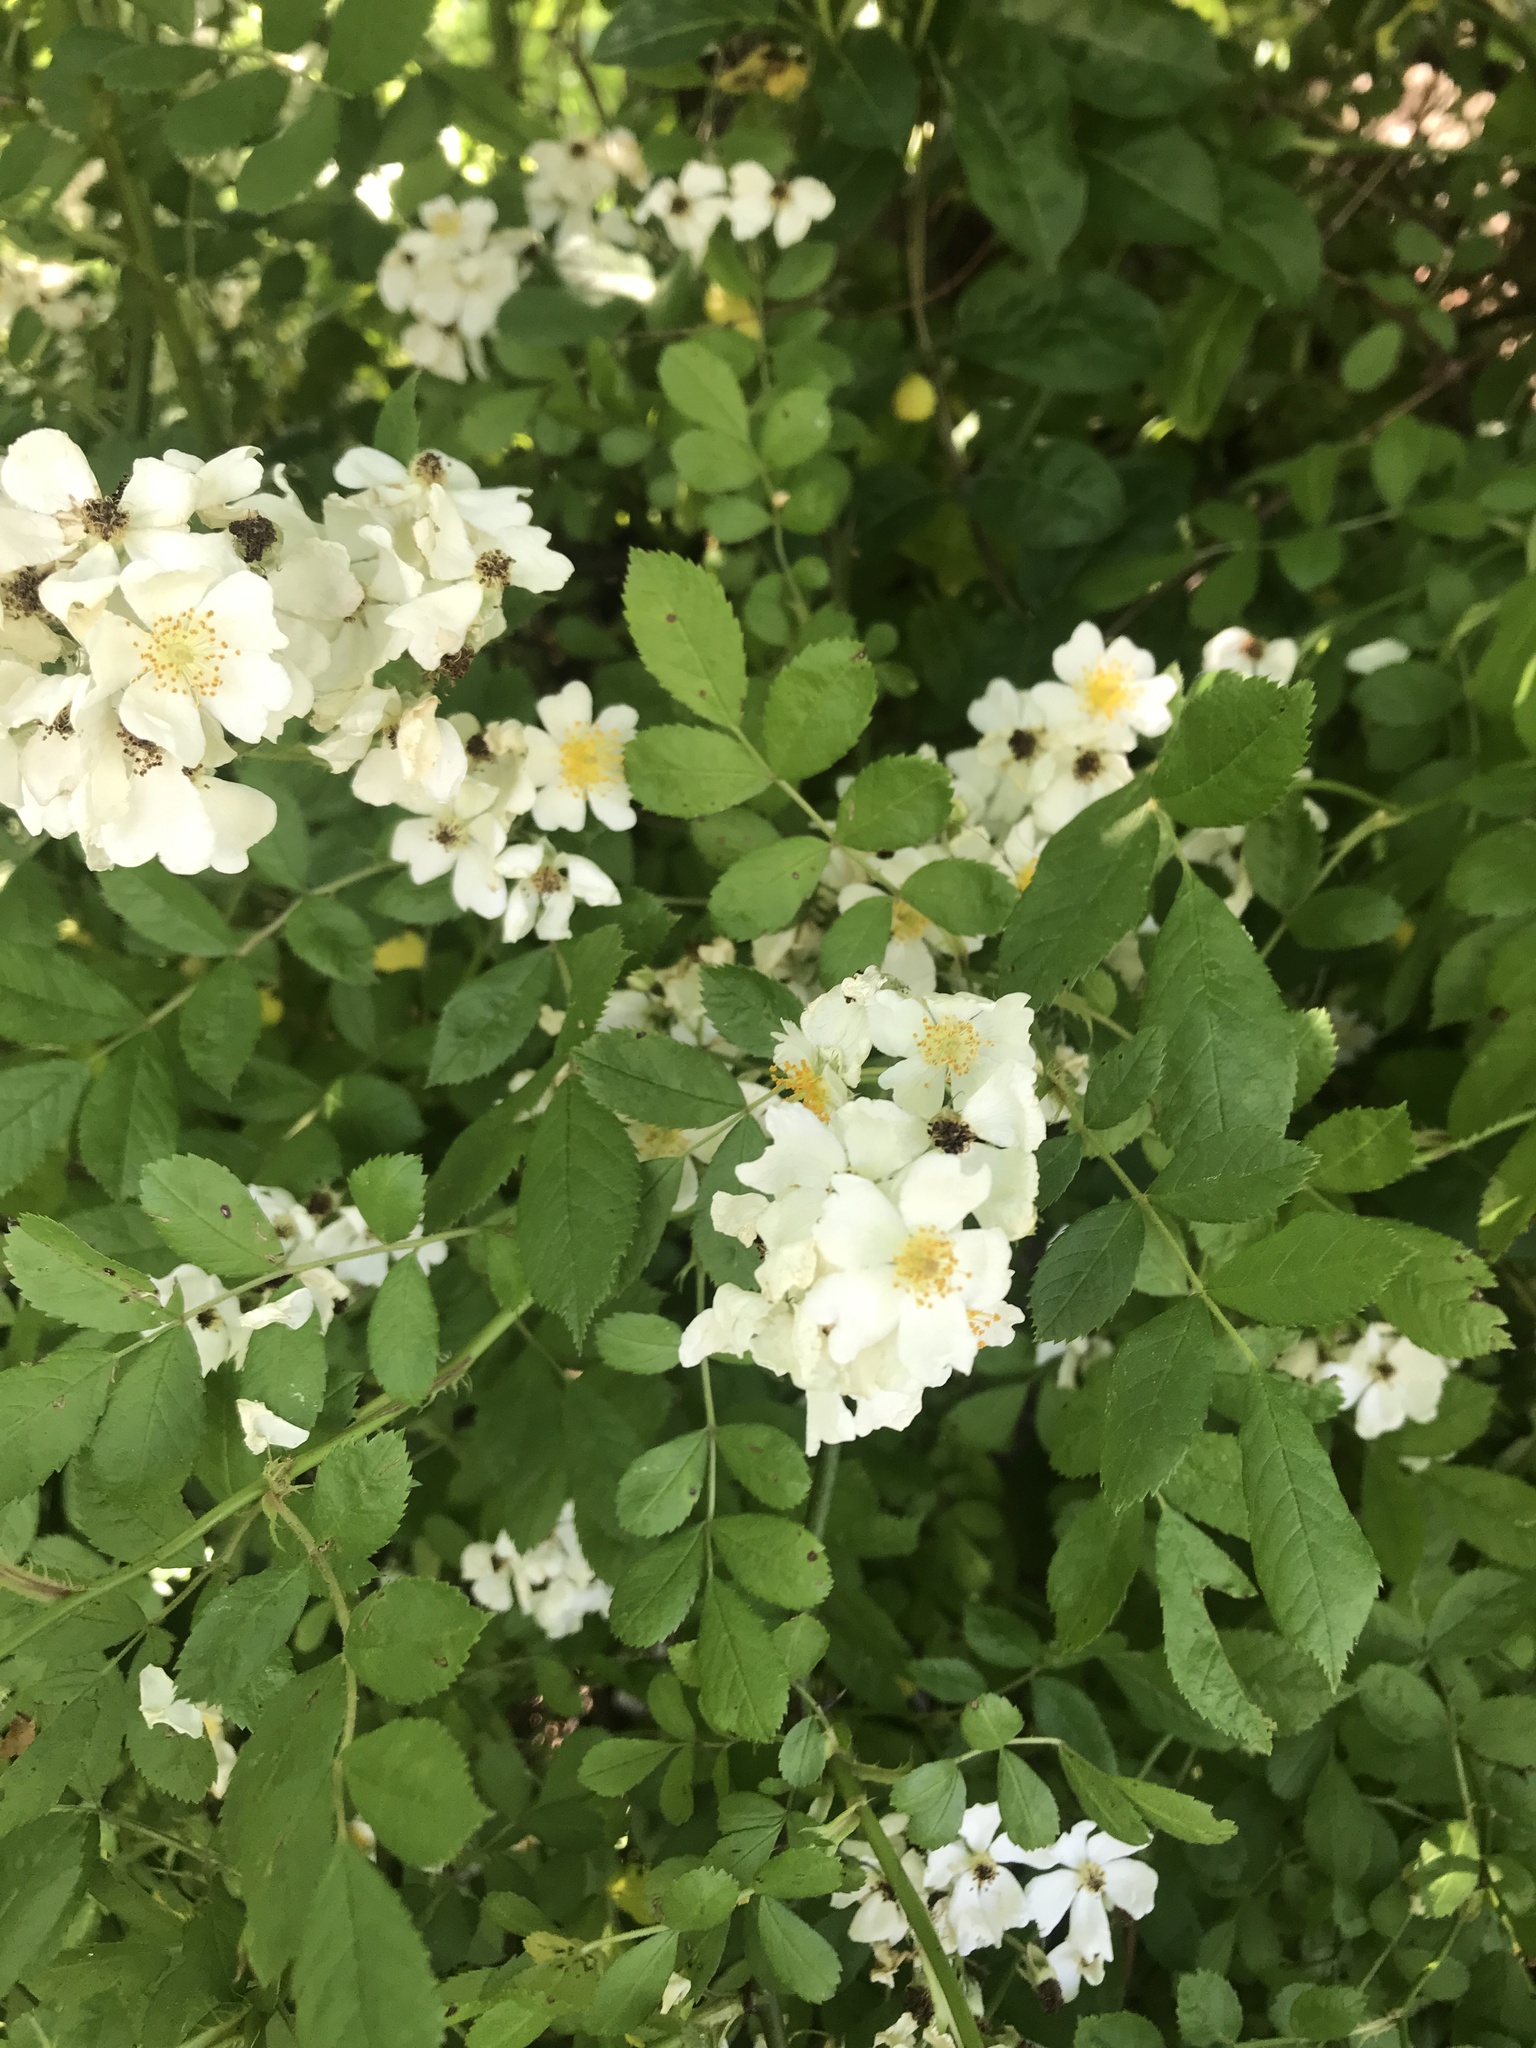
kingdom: Plantae
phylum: Tracheophyta
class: Magnoliopsida
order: Rosales
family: Rosaceae
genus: Rosa
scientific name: Rosa multiflora
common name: Multiflora rose
